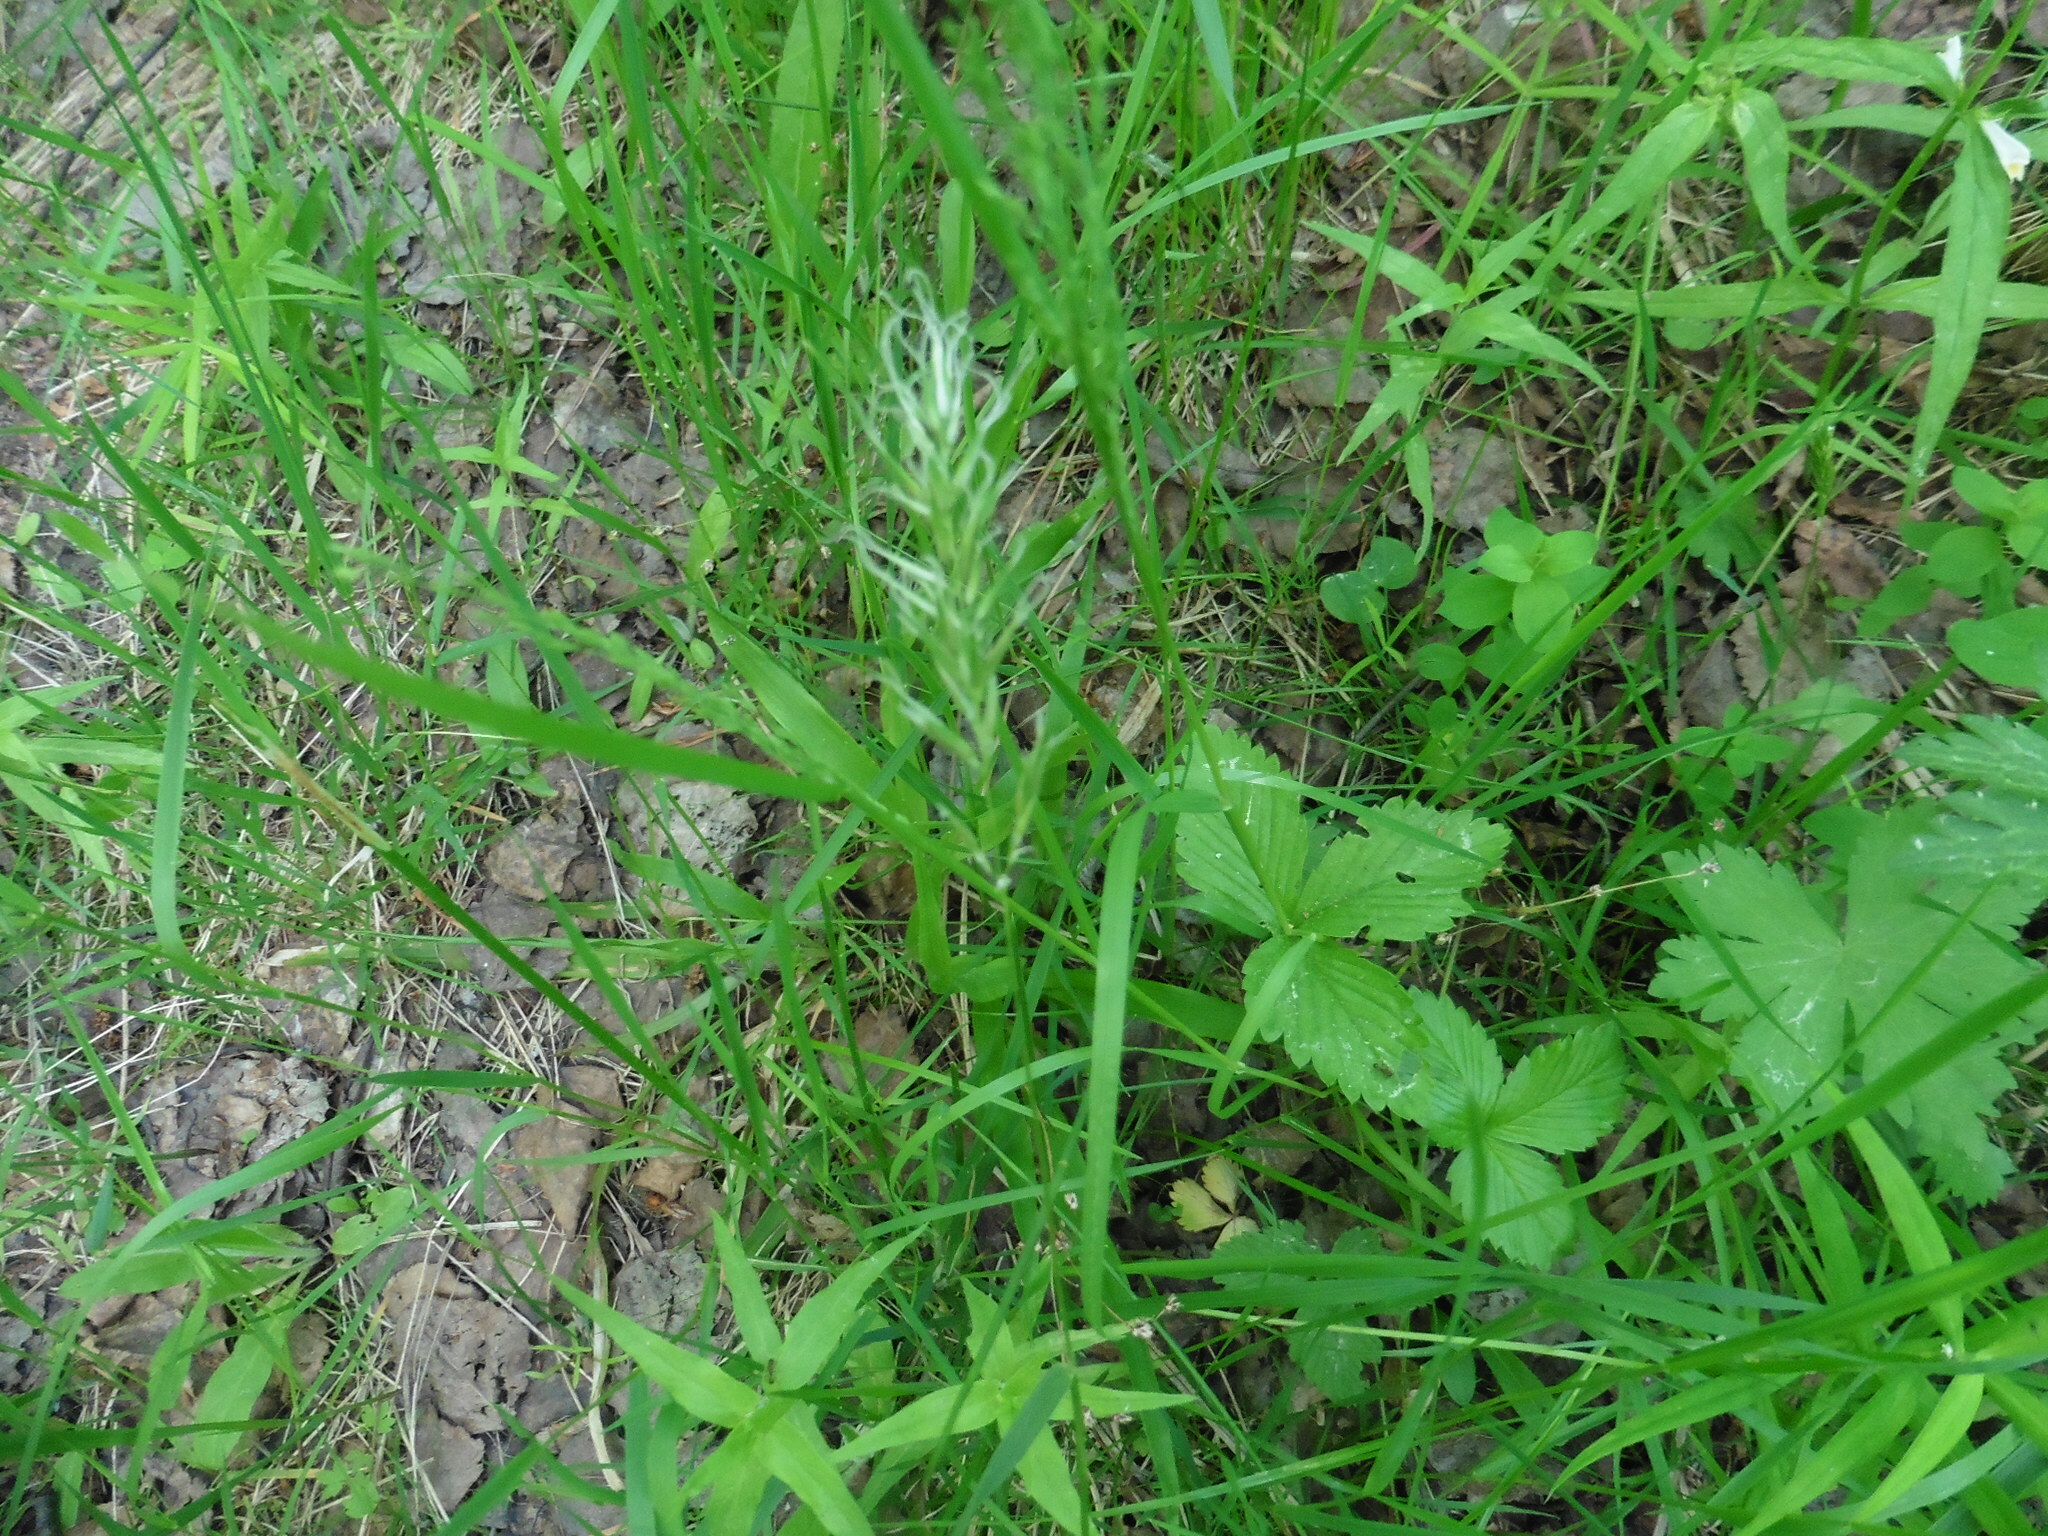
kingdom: Plantae
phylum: Tracheophyta
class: Liliopsida
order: Poales
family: Poaceae
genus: Anthoxanthum
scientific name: Anthoxanthum odoratum
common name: Sweet vernalgrass
